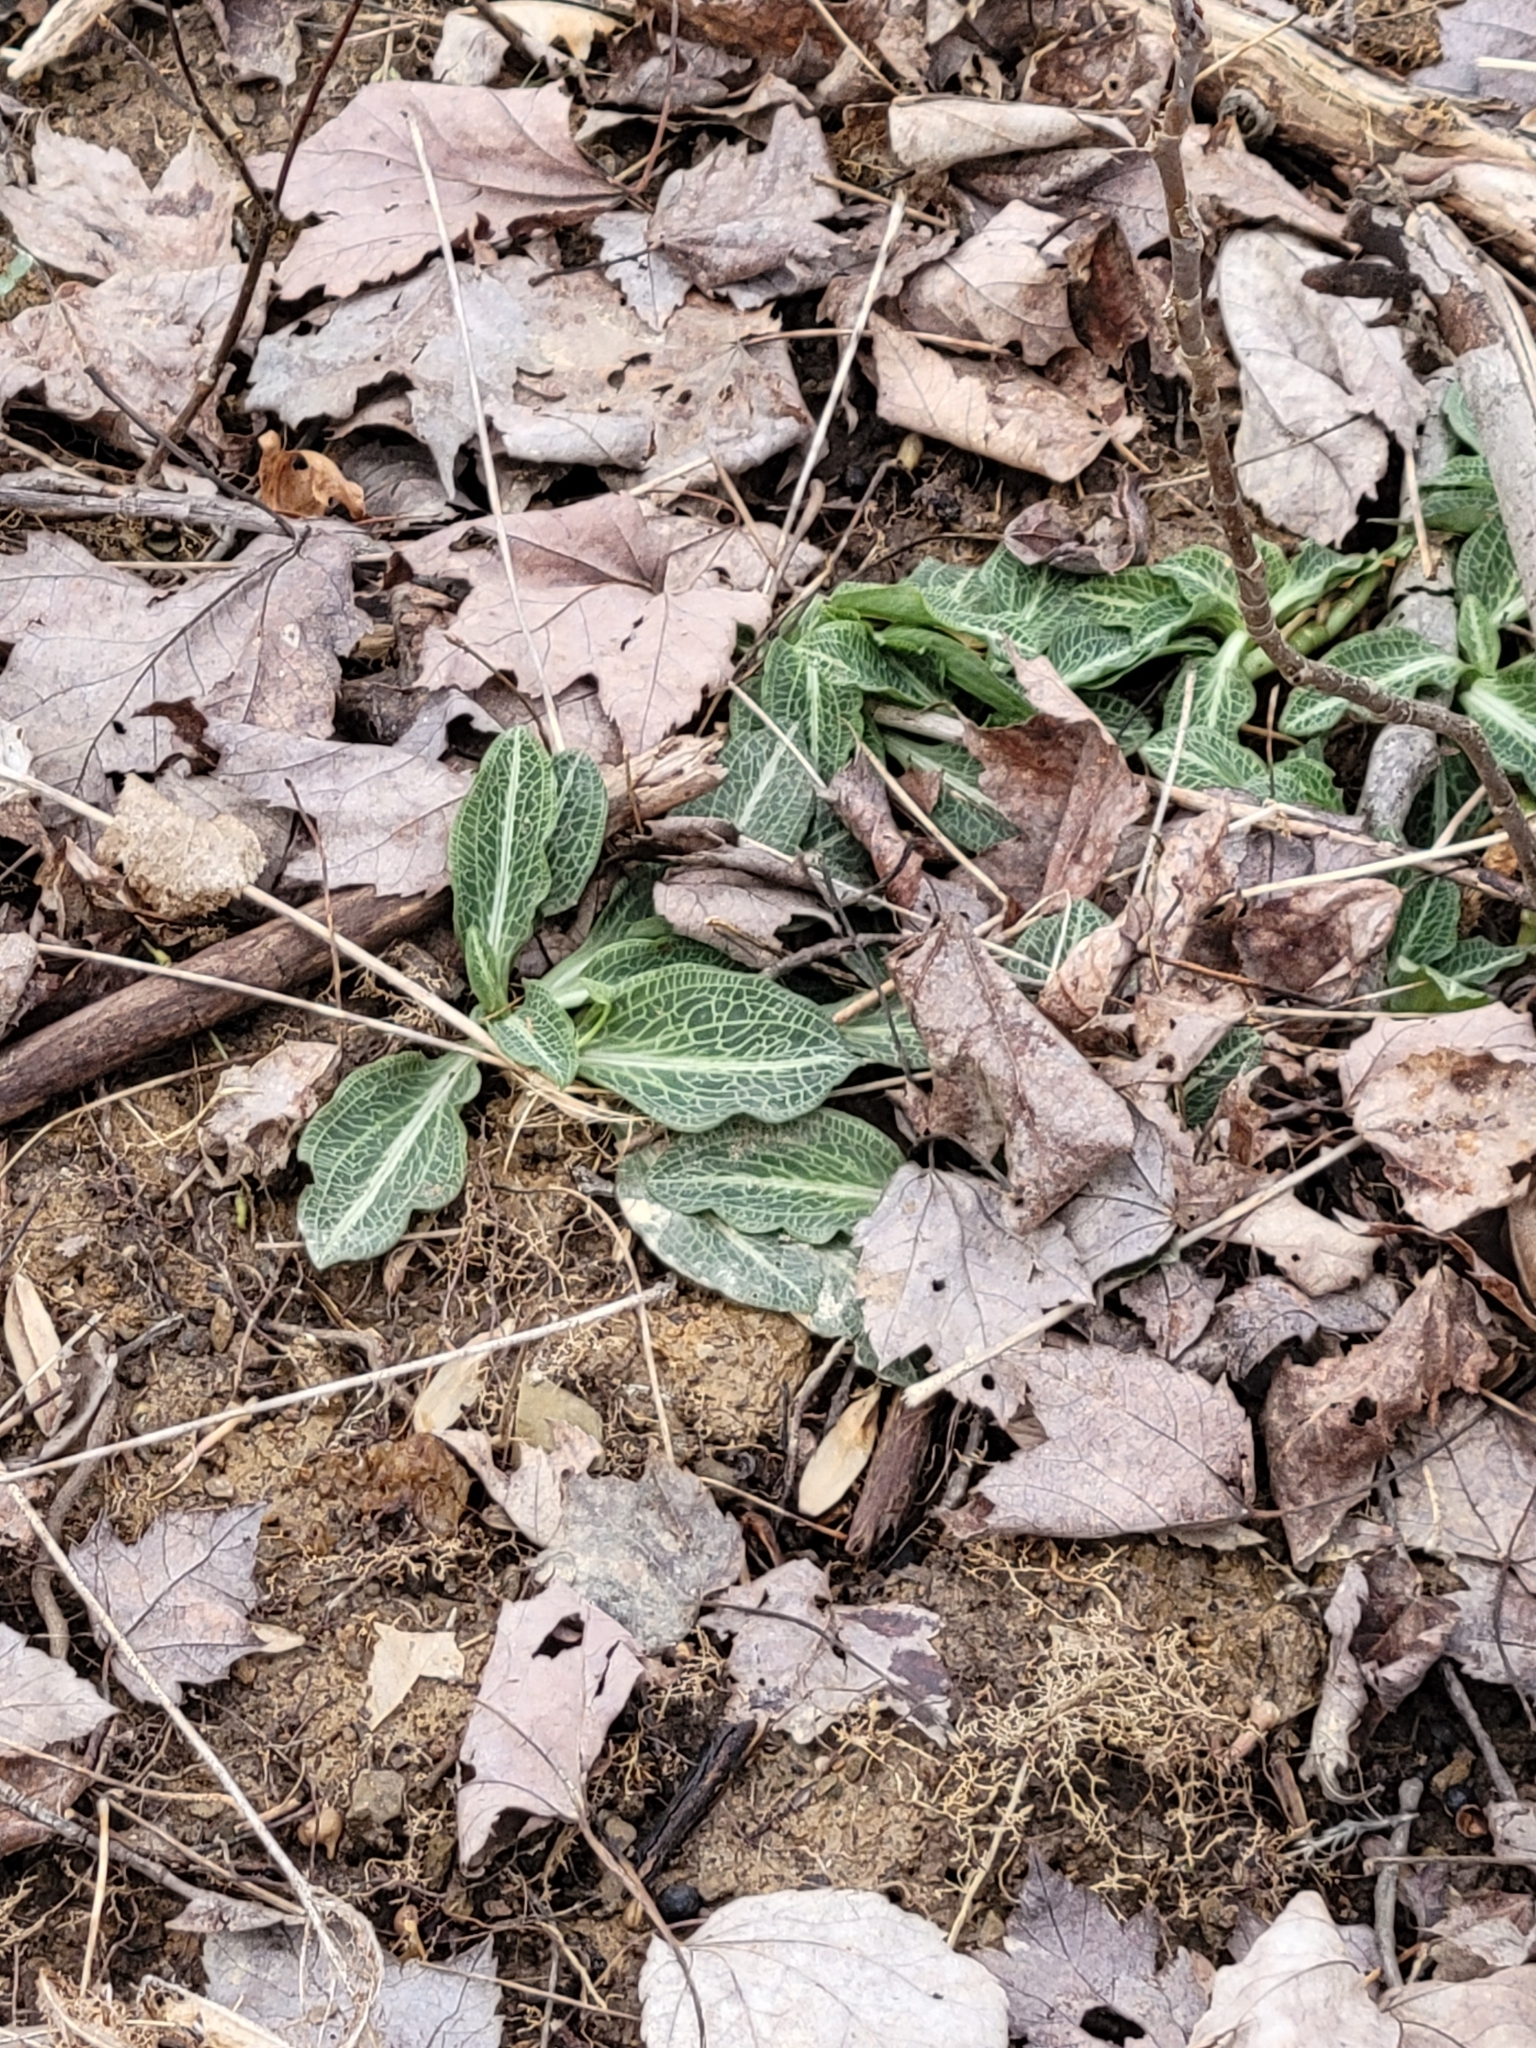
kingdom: Plantae
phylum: Tracheophyta
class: Liliopsida
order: Asparagales
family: Orchidaceae
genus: Goodyera
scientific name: Goodyera pubescens
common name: Downy rattlesnake-plantain
